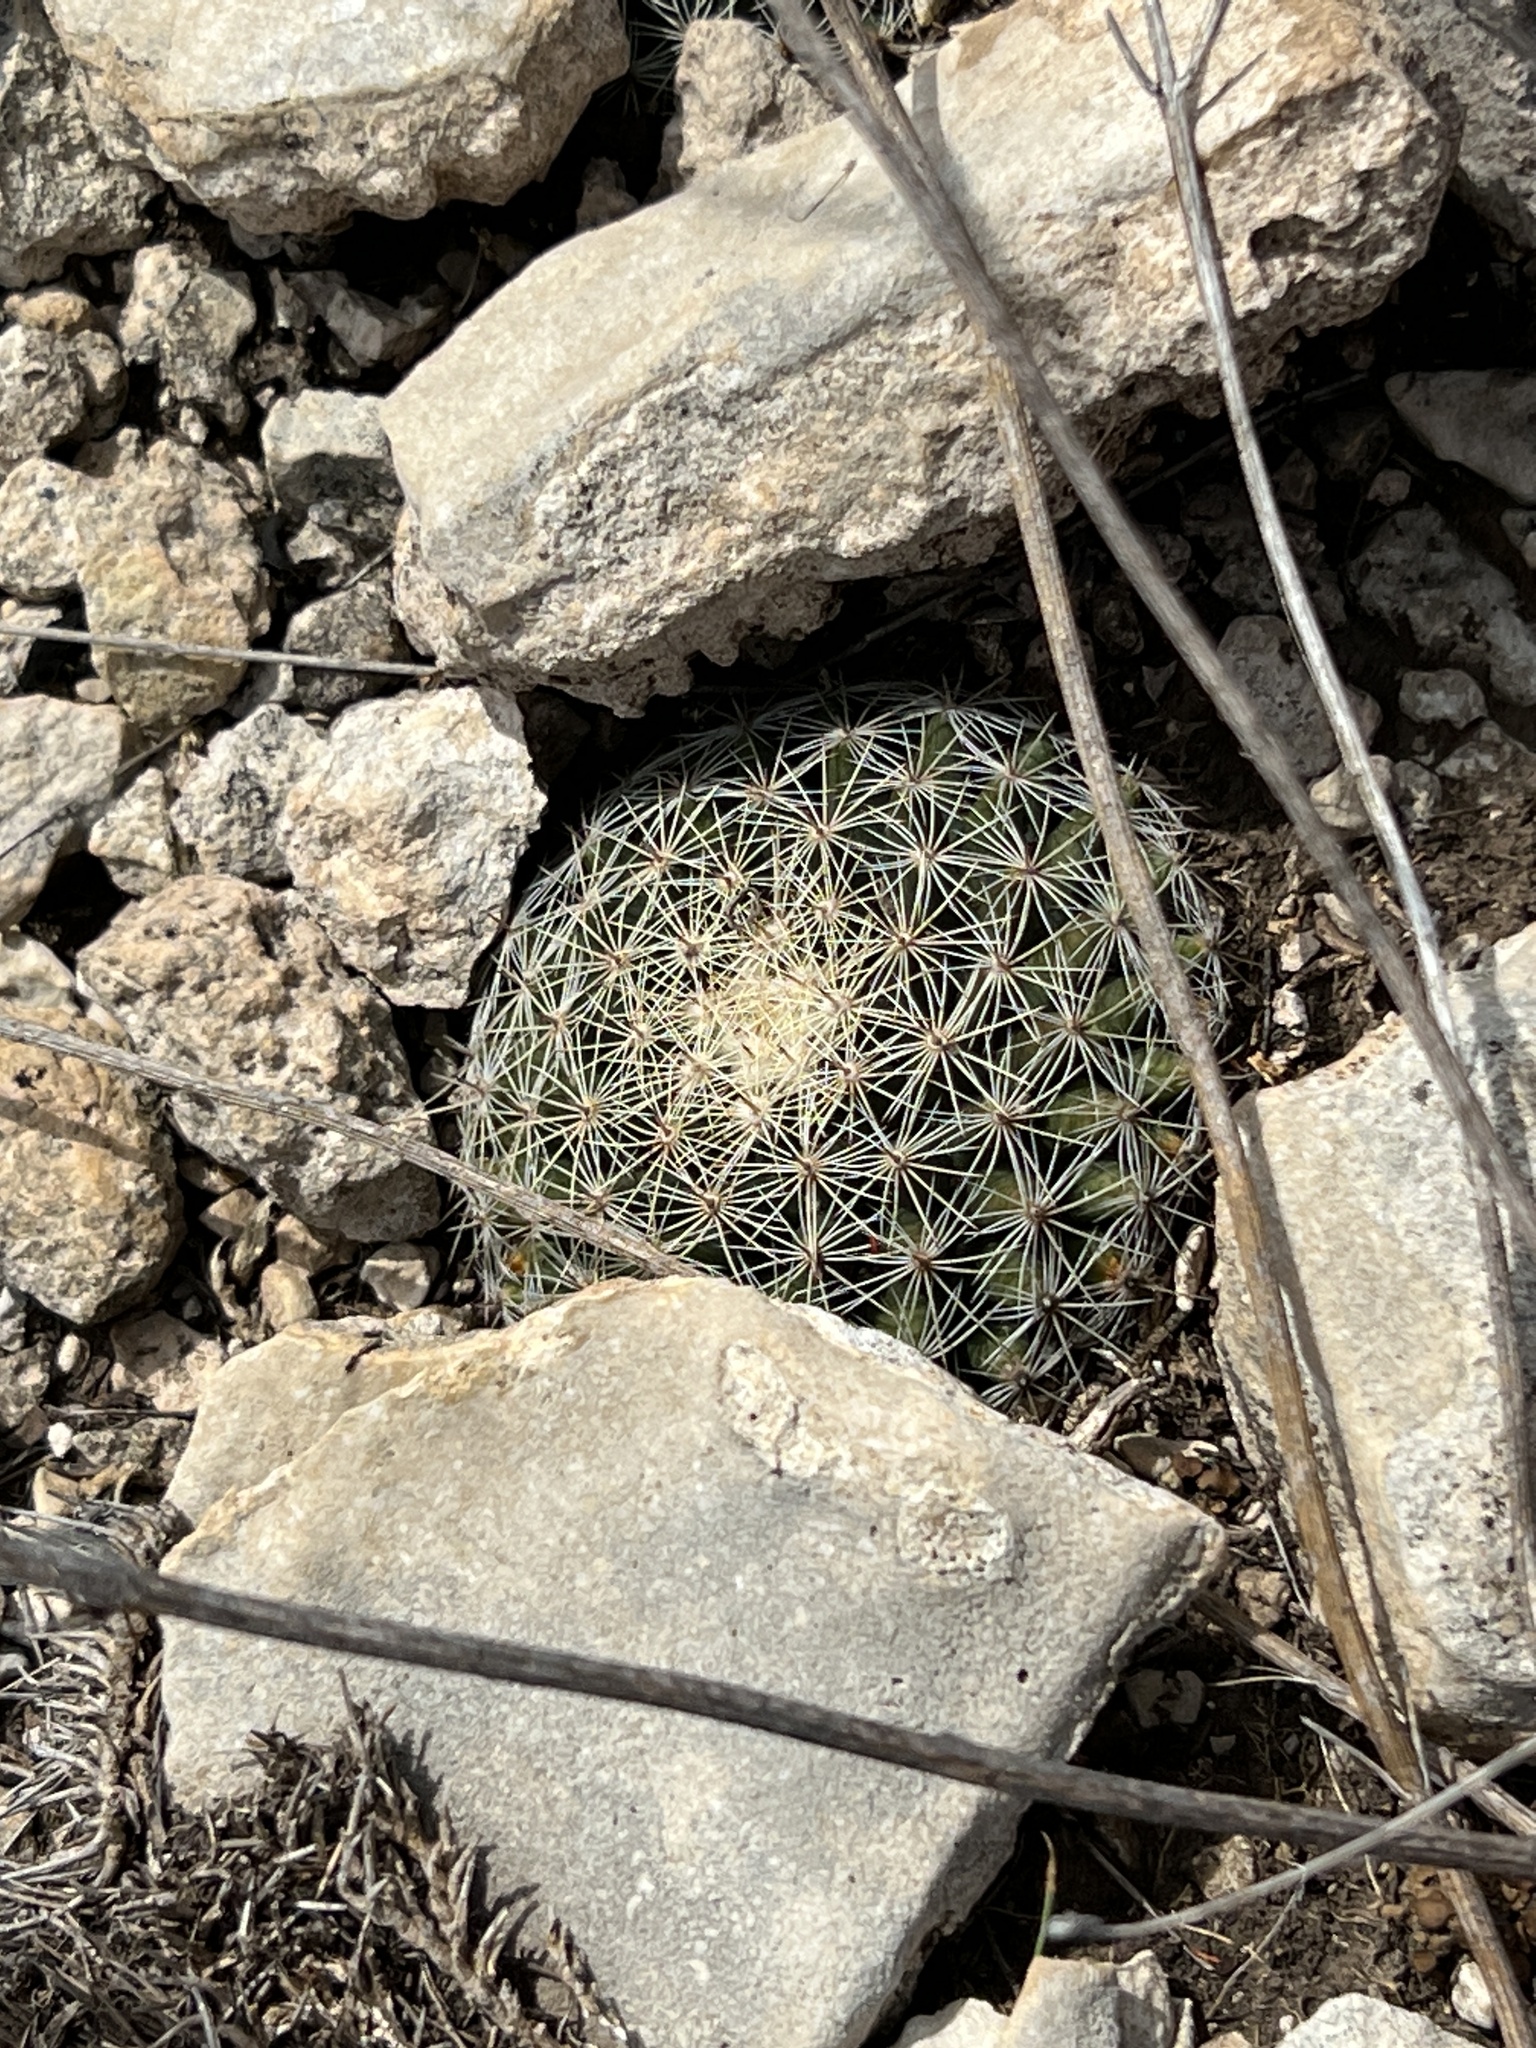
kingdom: Plantae
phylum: Tracheophyta
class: Magnoliopsida
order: Caryophyllales
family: Cactaceae
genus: Mammillaria
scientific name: Mammillaria heyderi
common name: Little nipple cactus
